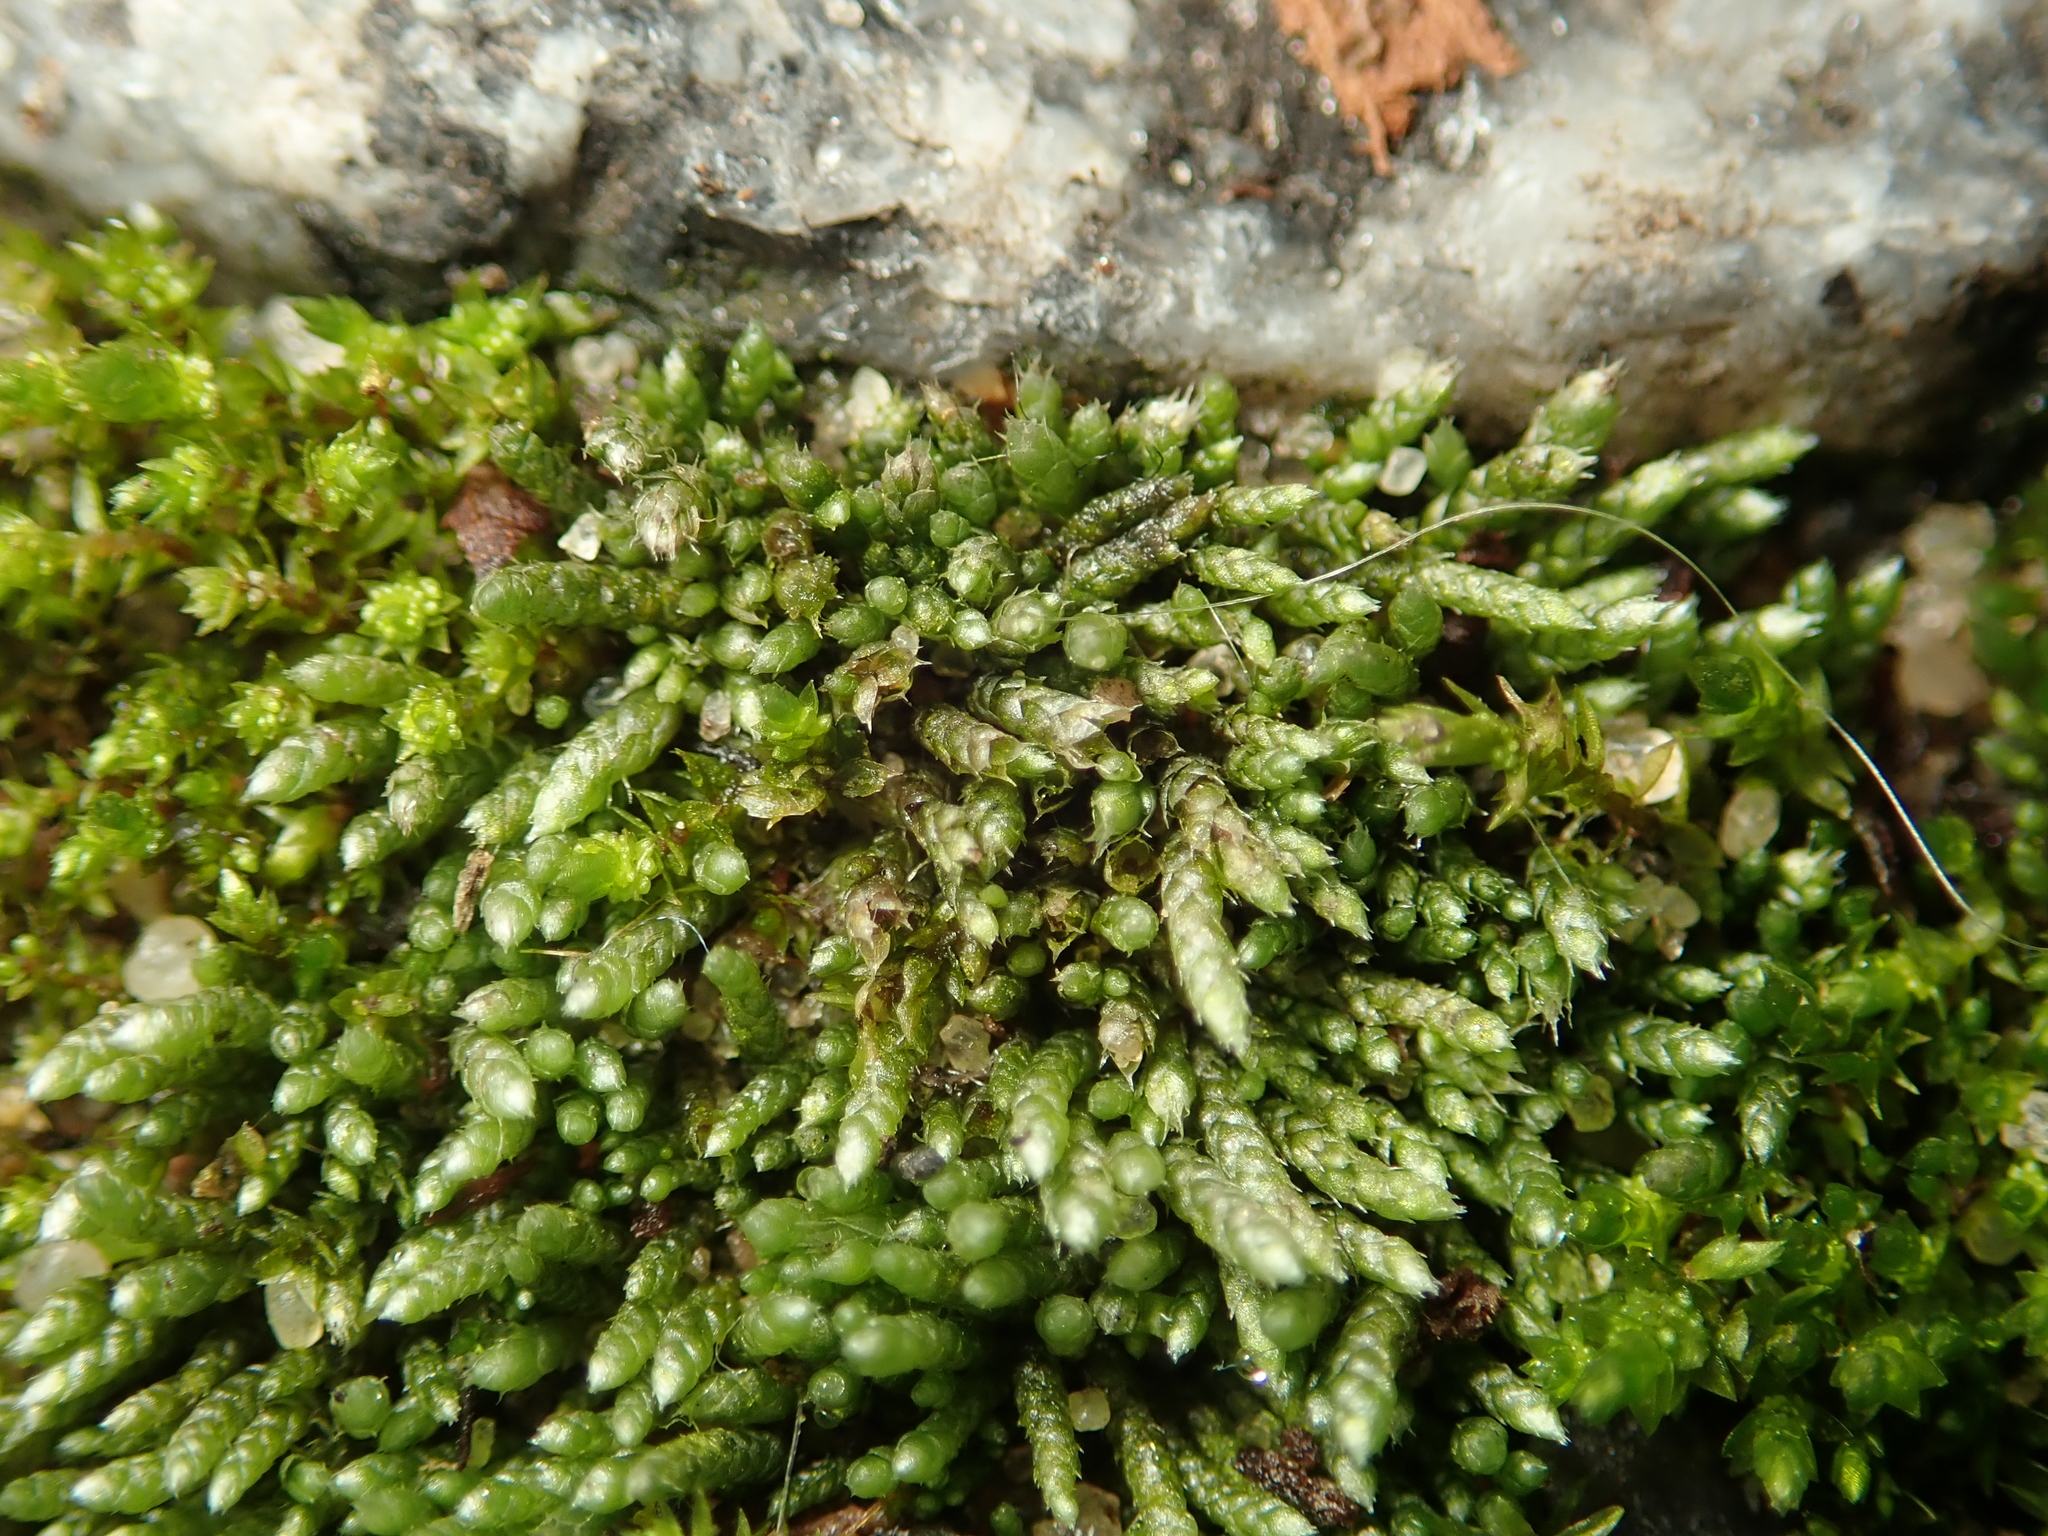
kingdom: Plantae
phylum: Bryophyta
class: Bryopsida
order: Bryales
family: Bryaceae
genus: Bryum
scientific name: Bryum argenteum
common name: Silver-moss
